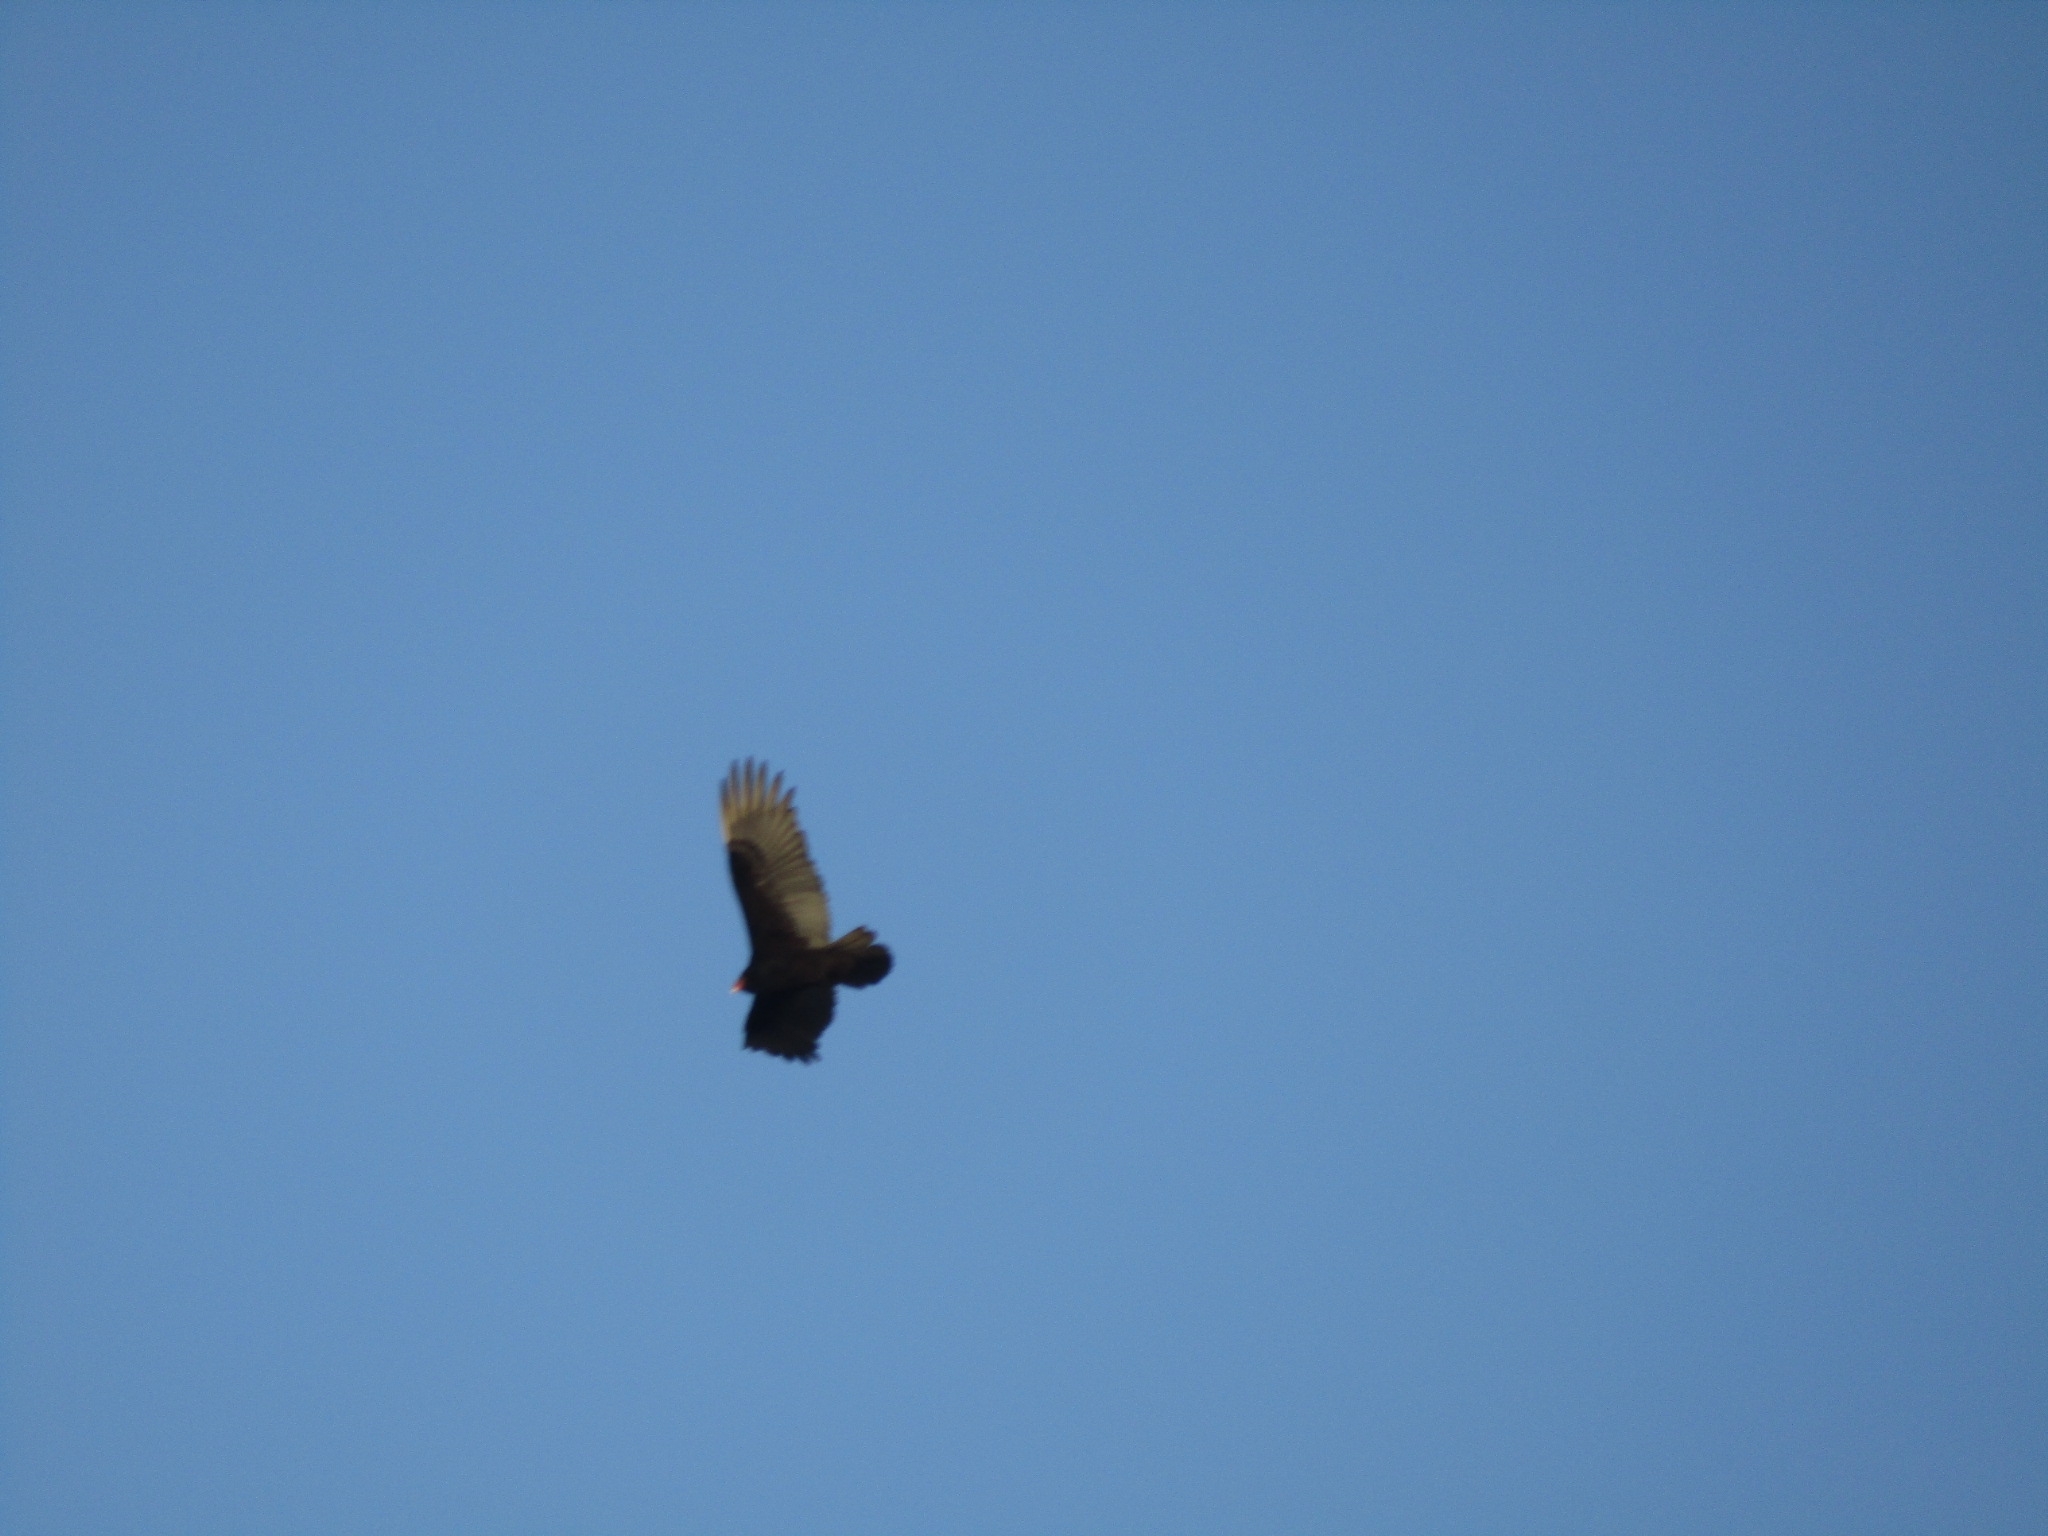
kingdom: Animalia
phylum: Chordata
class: Aves
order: Accipitriformes
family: Cathartidae
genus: Cathartes
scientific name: Cathartes aura
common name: Turkey vulture
